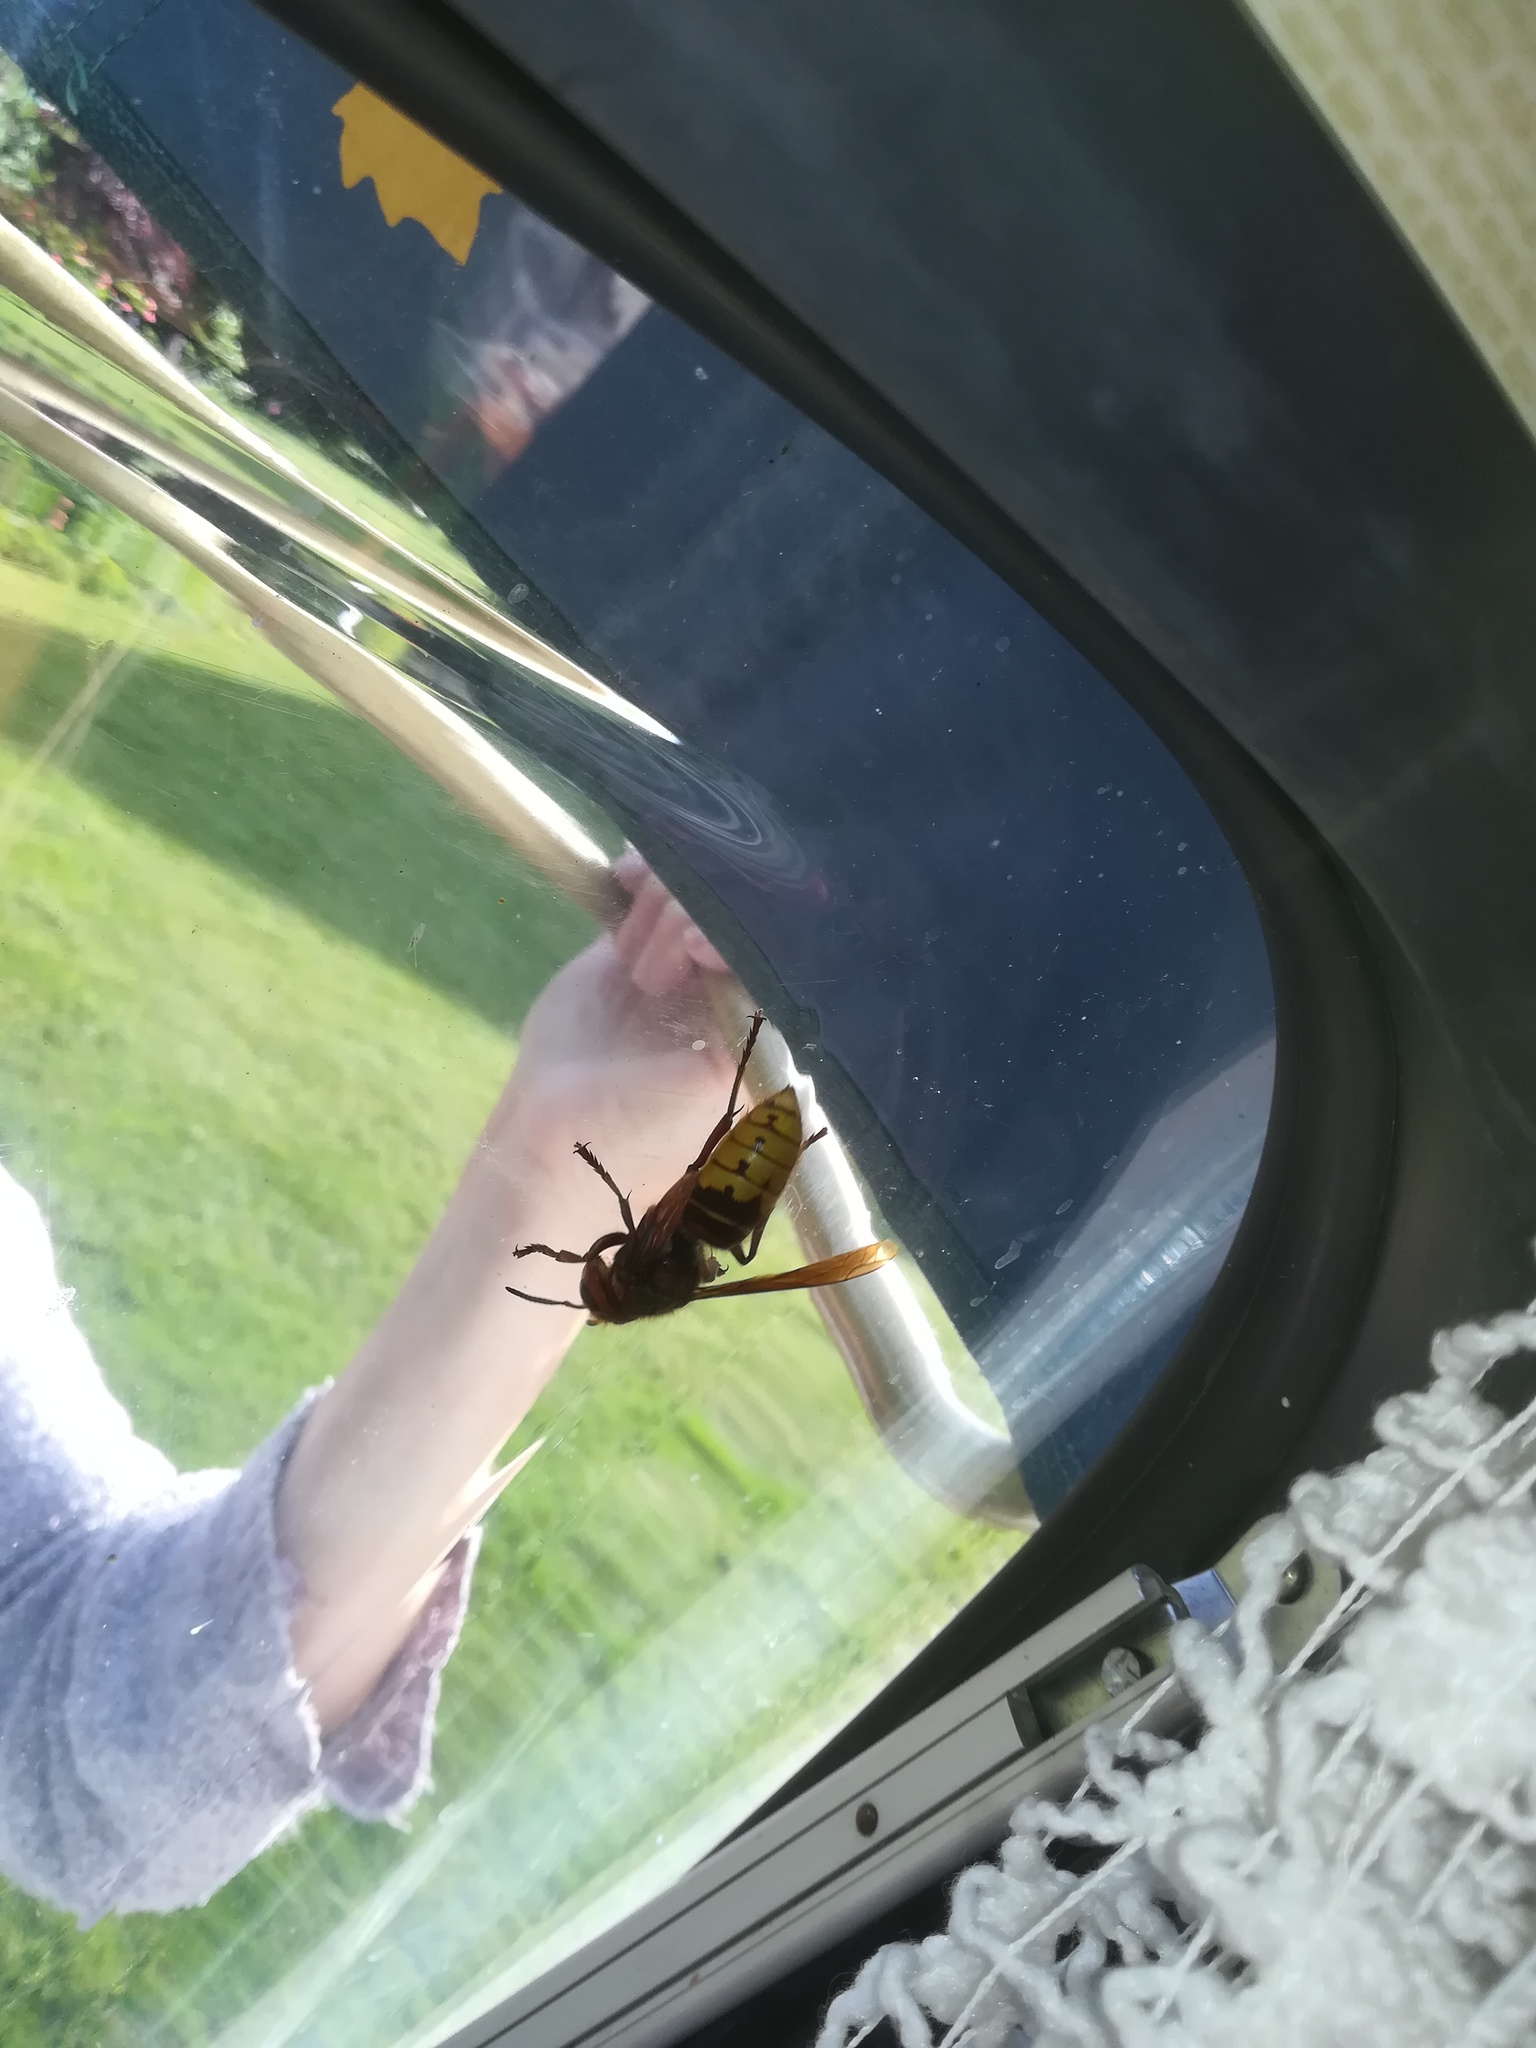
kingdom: Animalia
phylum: Arthropoda
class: Insecta
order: Hymenoptera
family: Vespidae
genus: Vespa
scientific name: Vespa crabro
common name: Hornet
